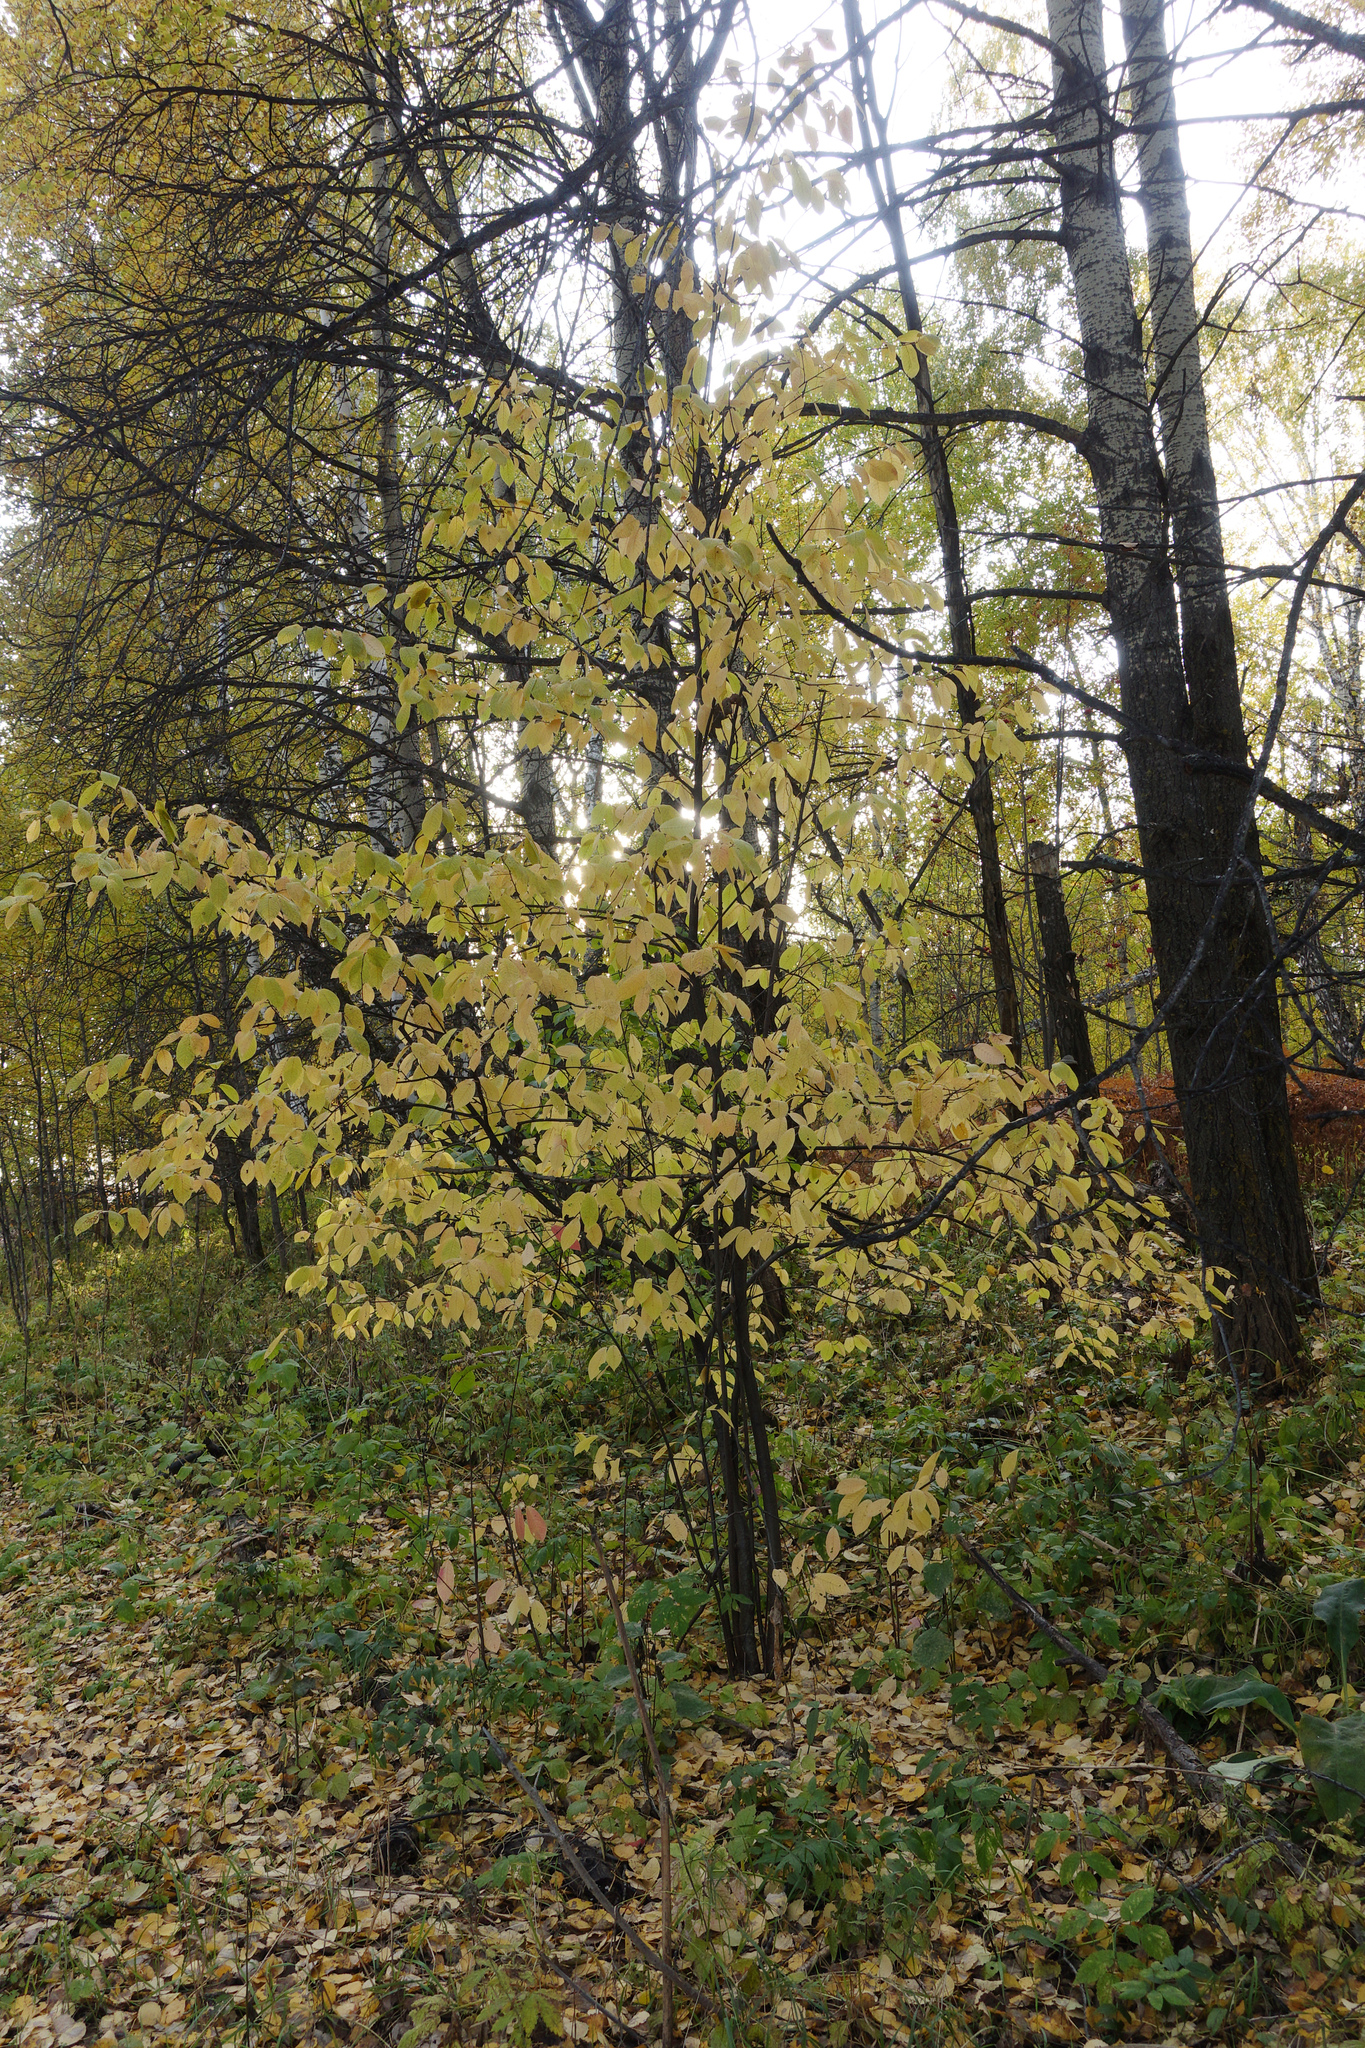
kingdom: Plantae
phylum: Tracheophyta
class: Magnoliopsida
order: Rosales
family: Rosaceae
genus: Prunus
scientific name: Prunus padus
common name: Bird cherry
